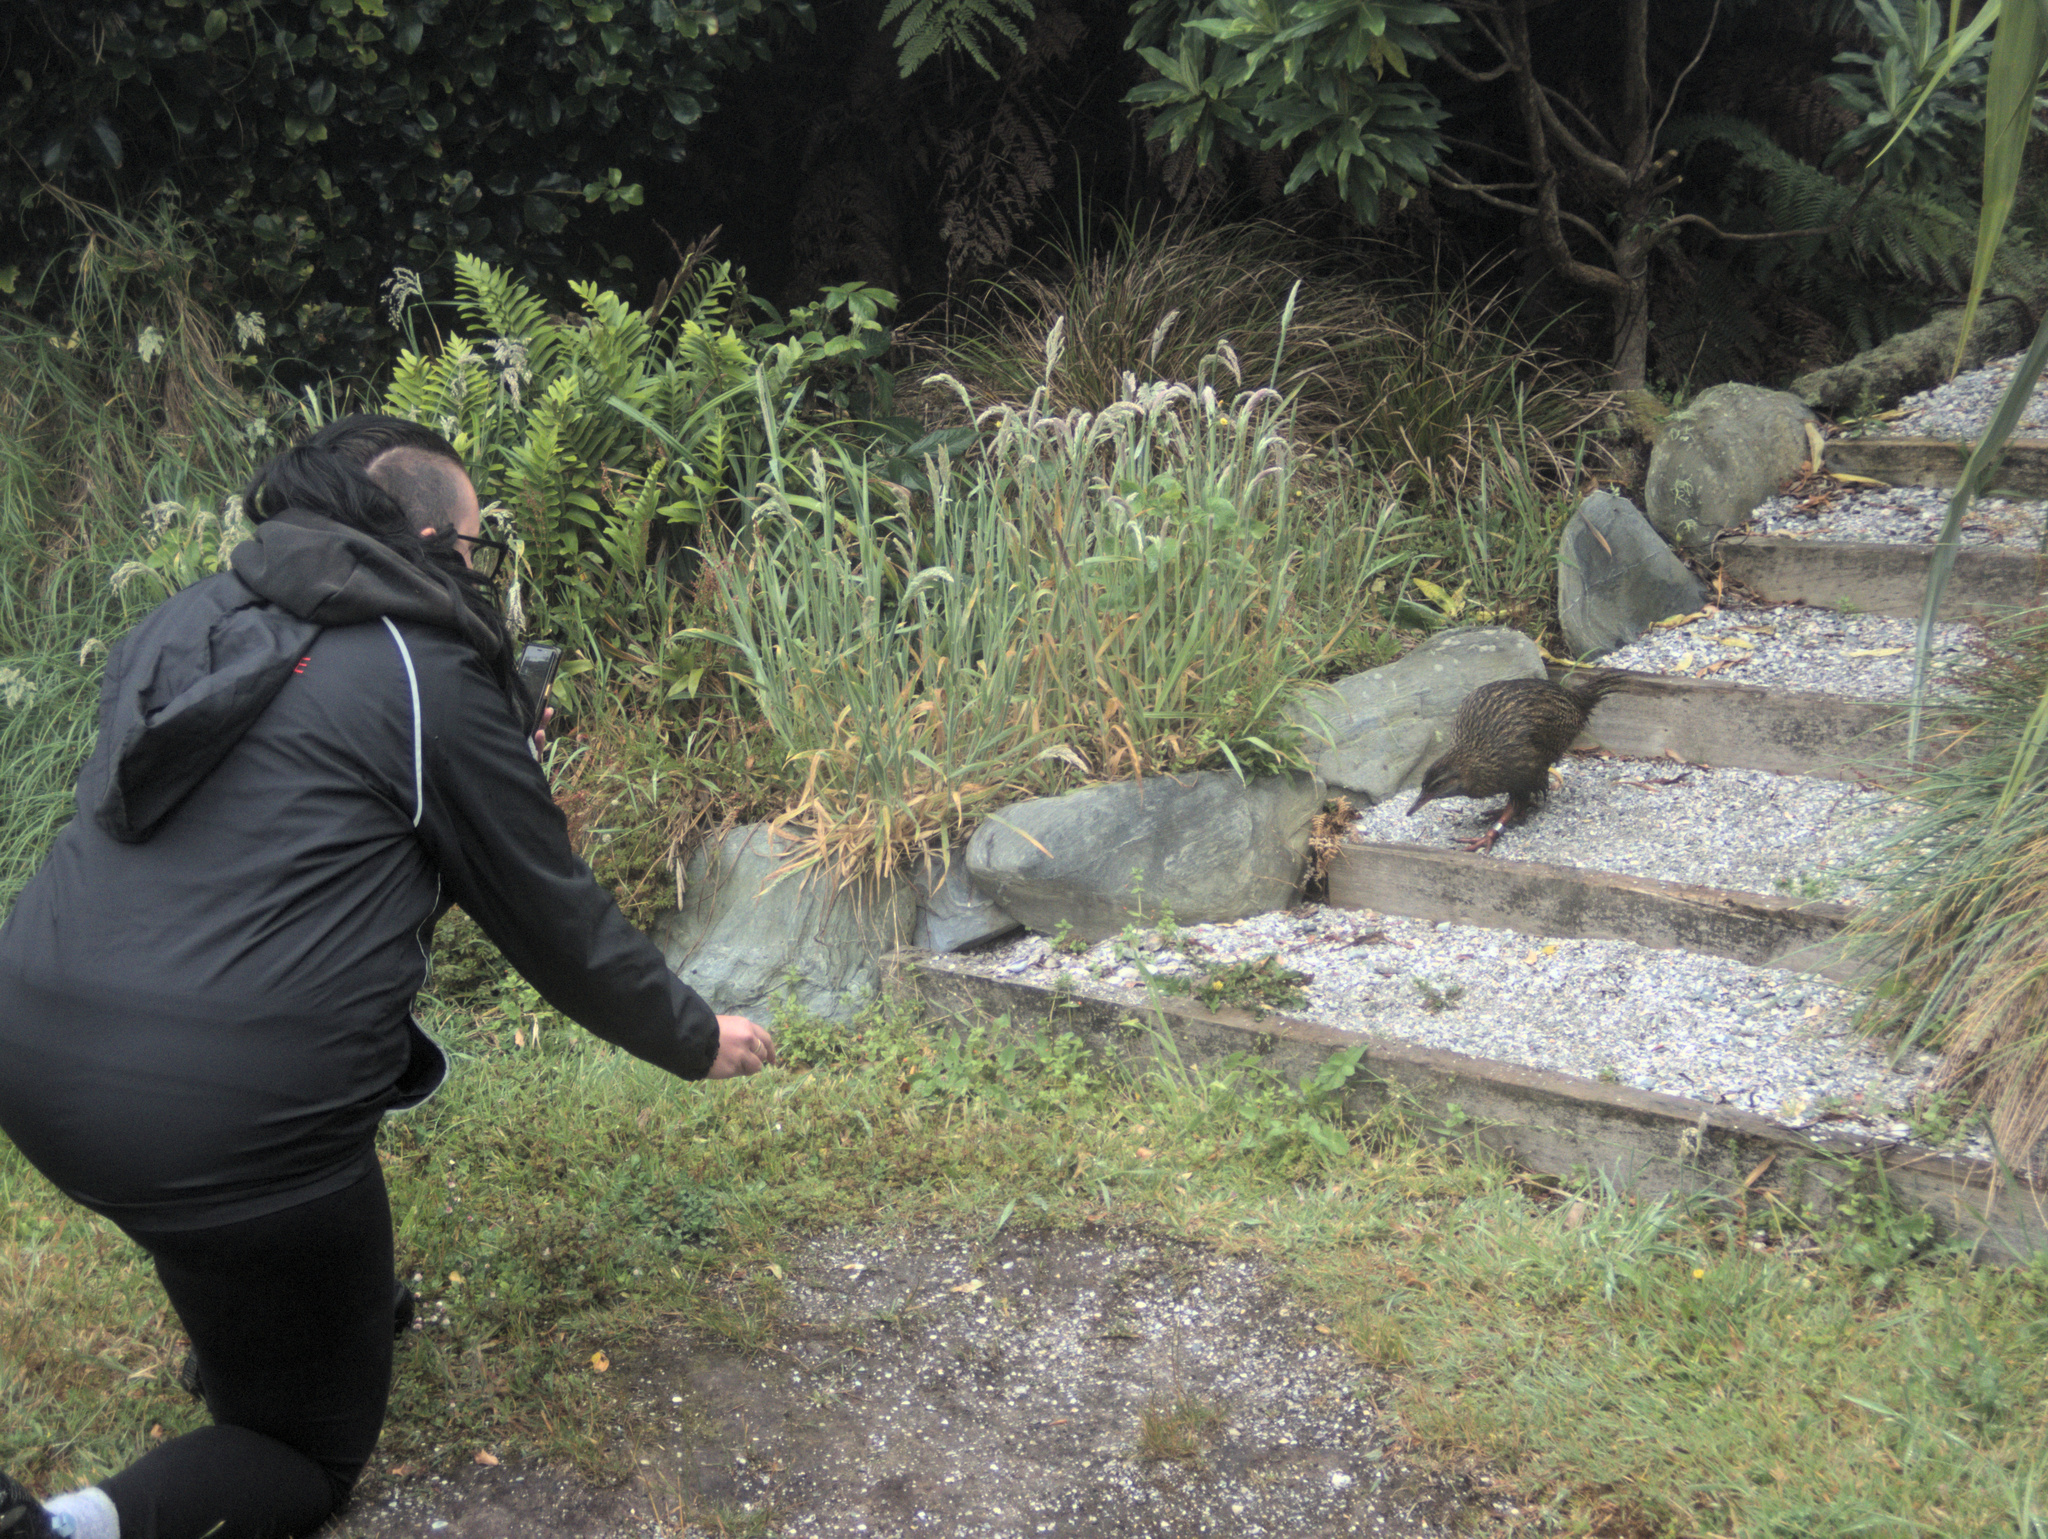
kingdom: Animalia
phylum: Chordata
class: Aves
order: Gruiformes
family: Rallidae
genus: Gallirallus
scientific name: Gallirallus australis
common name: Weka
